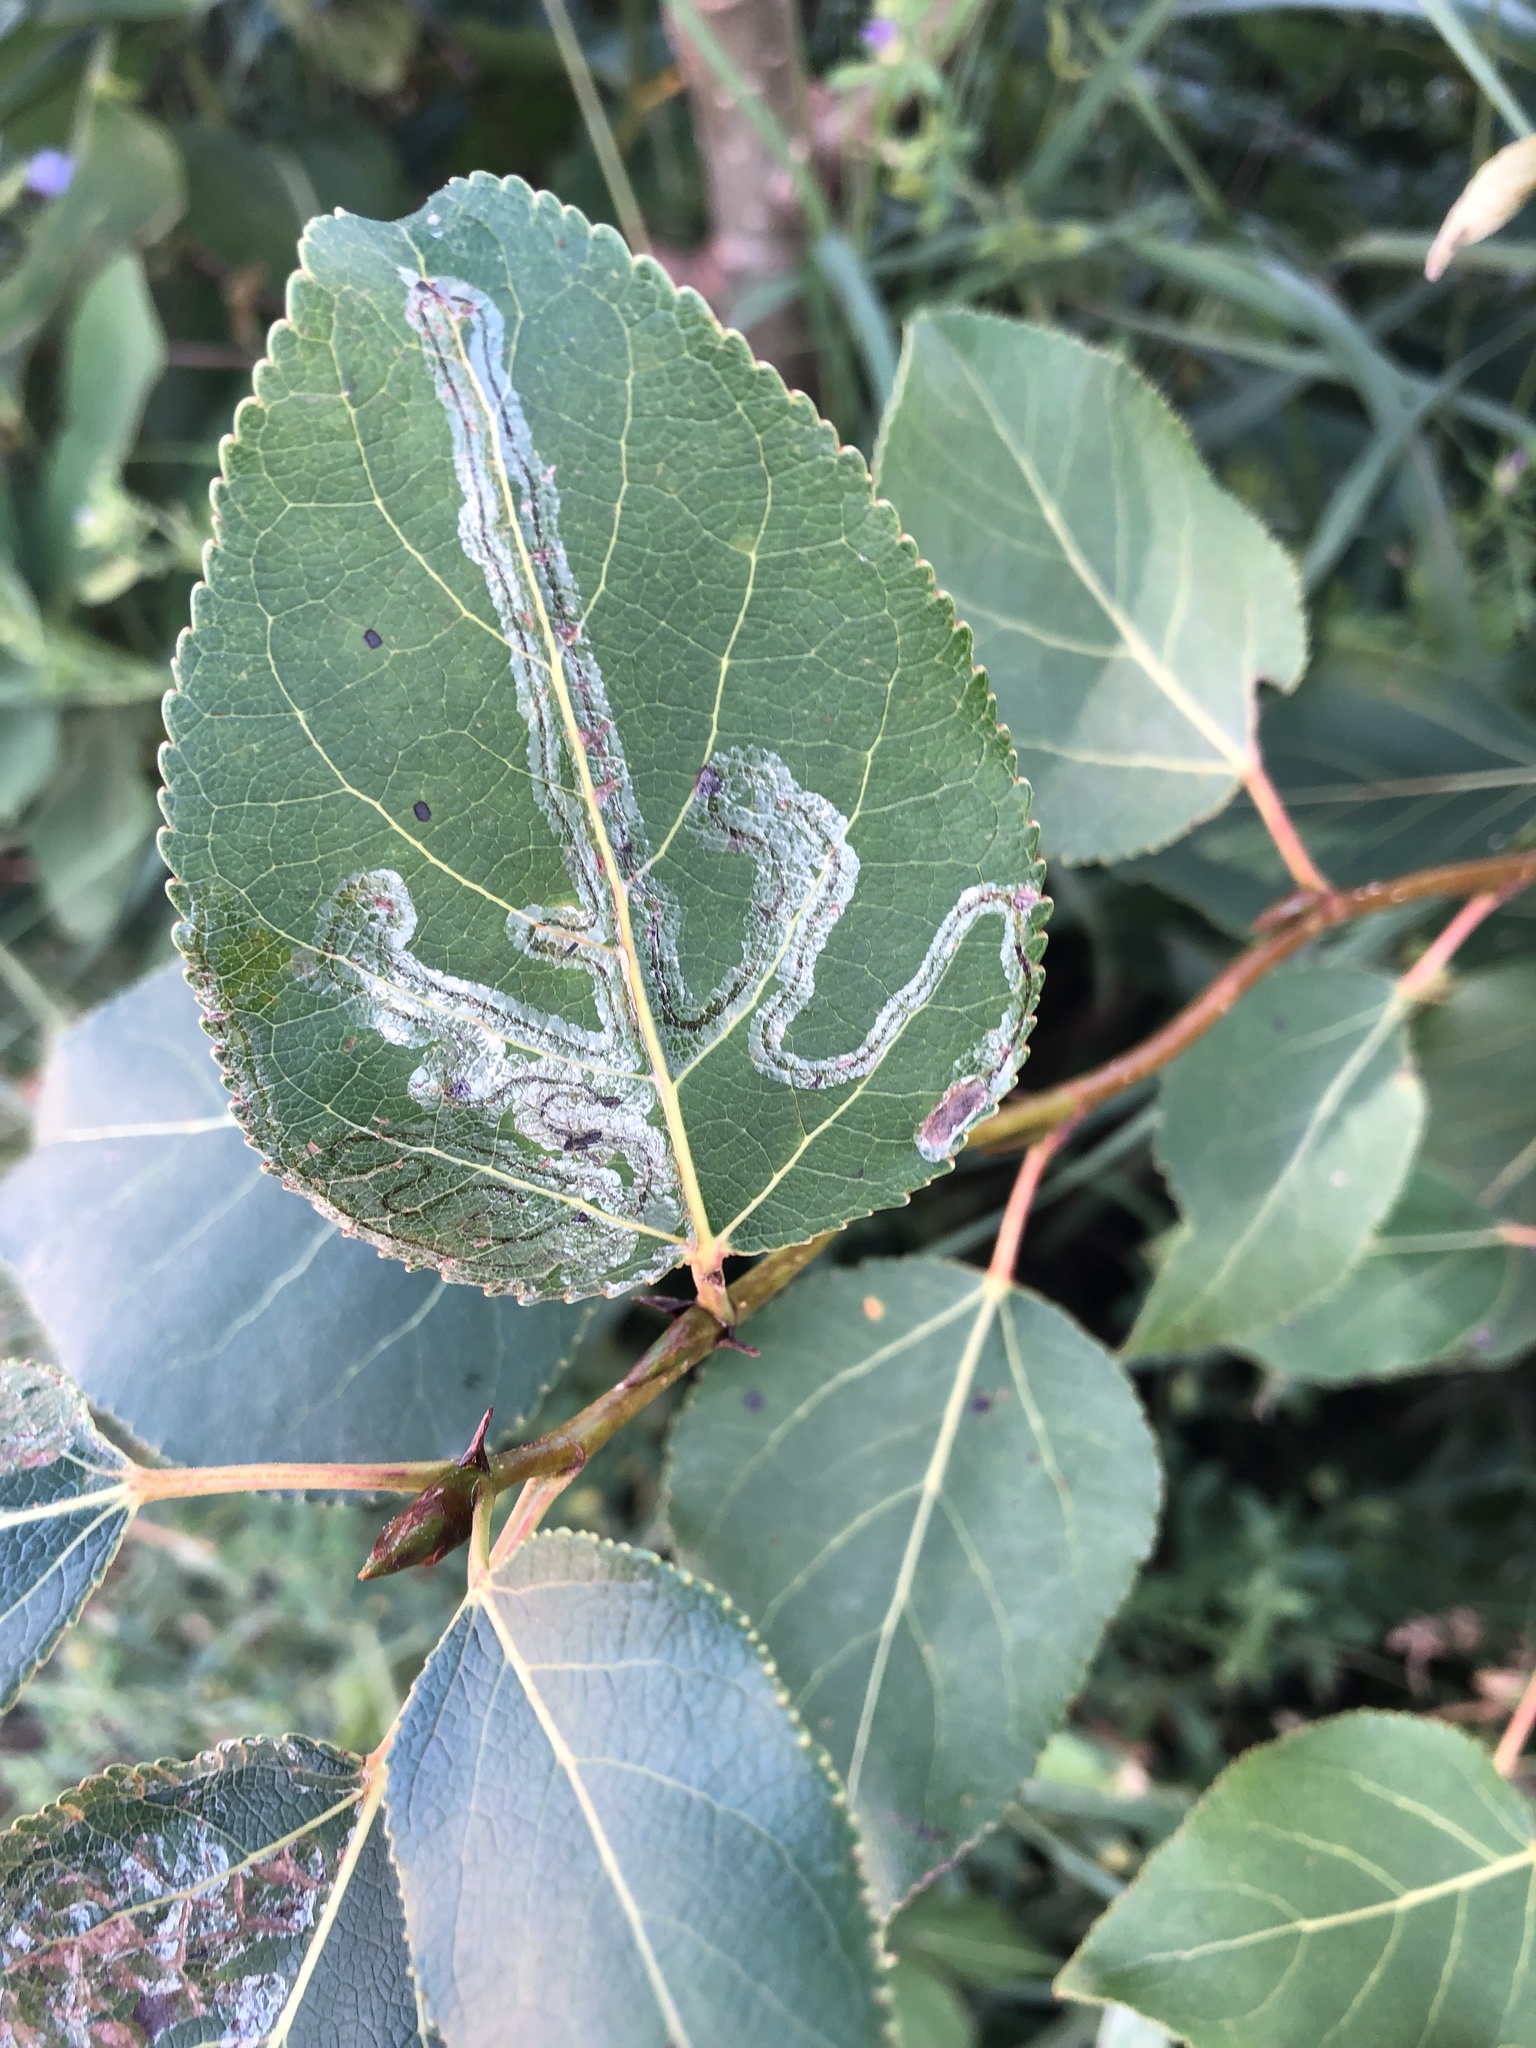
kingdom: Animalia
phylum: Arthropoda
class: Insecta
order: Lepidoptera
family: Gracillariidae
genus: Phyllocnistis
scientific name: Phyllocnistis populiella
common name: Aspen serpentine leafminer moth
